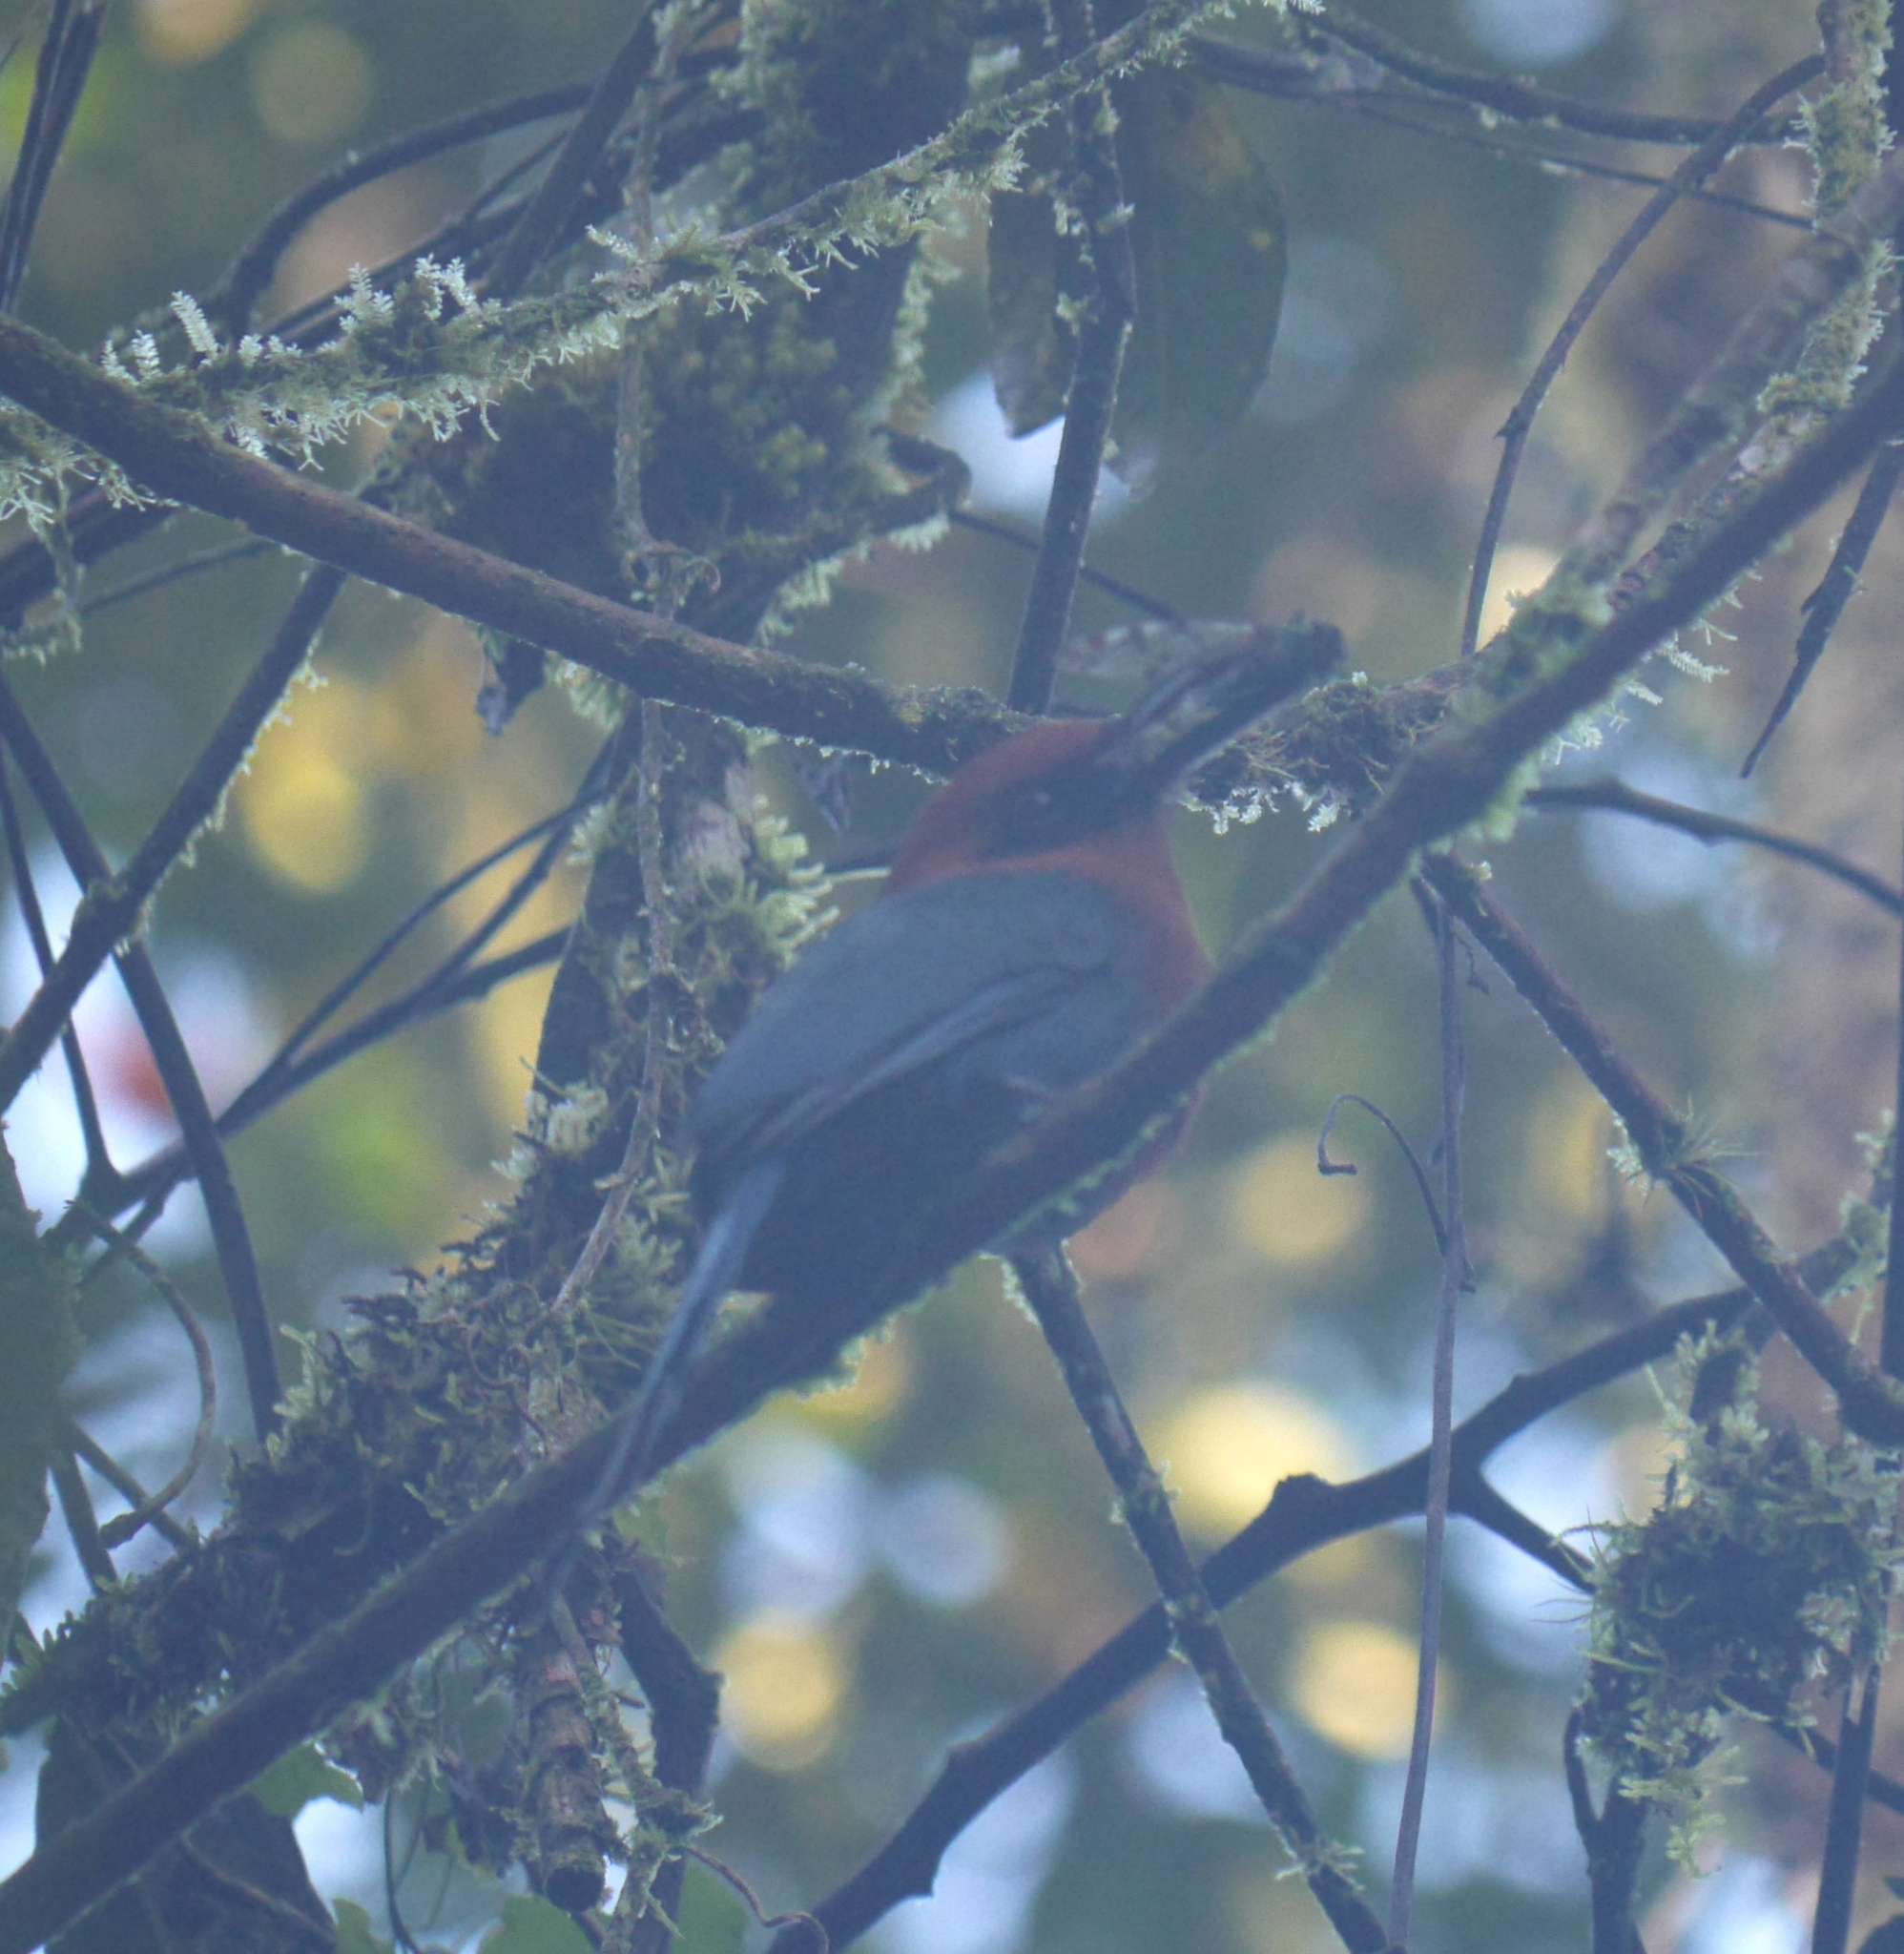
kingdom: Animalia
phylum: Chordata
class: Aves
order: Coraciiformes
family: Momotidae
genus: Electron
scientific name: Electron platyrhynchum
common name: Broad-billed motmot
